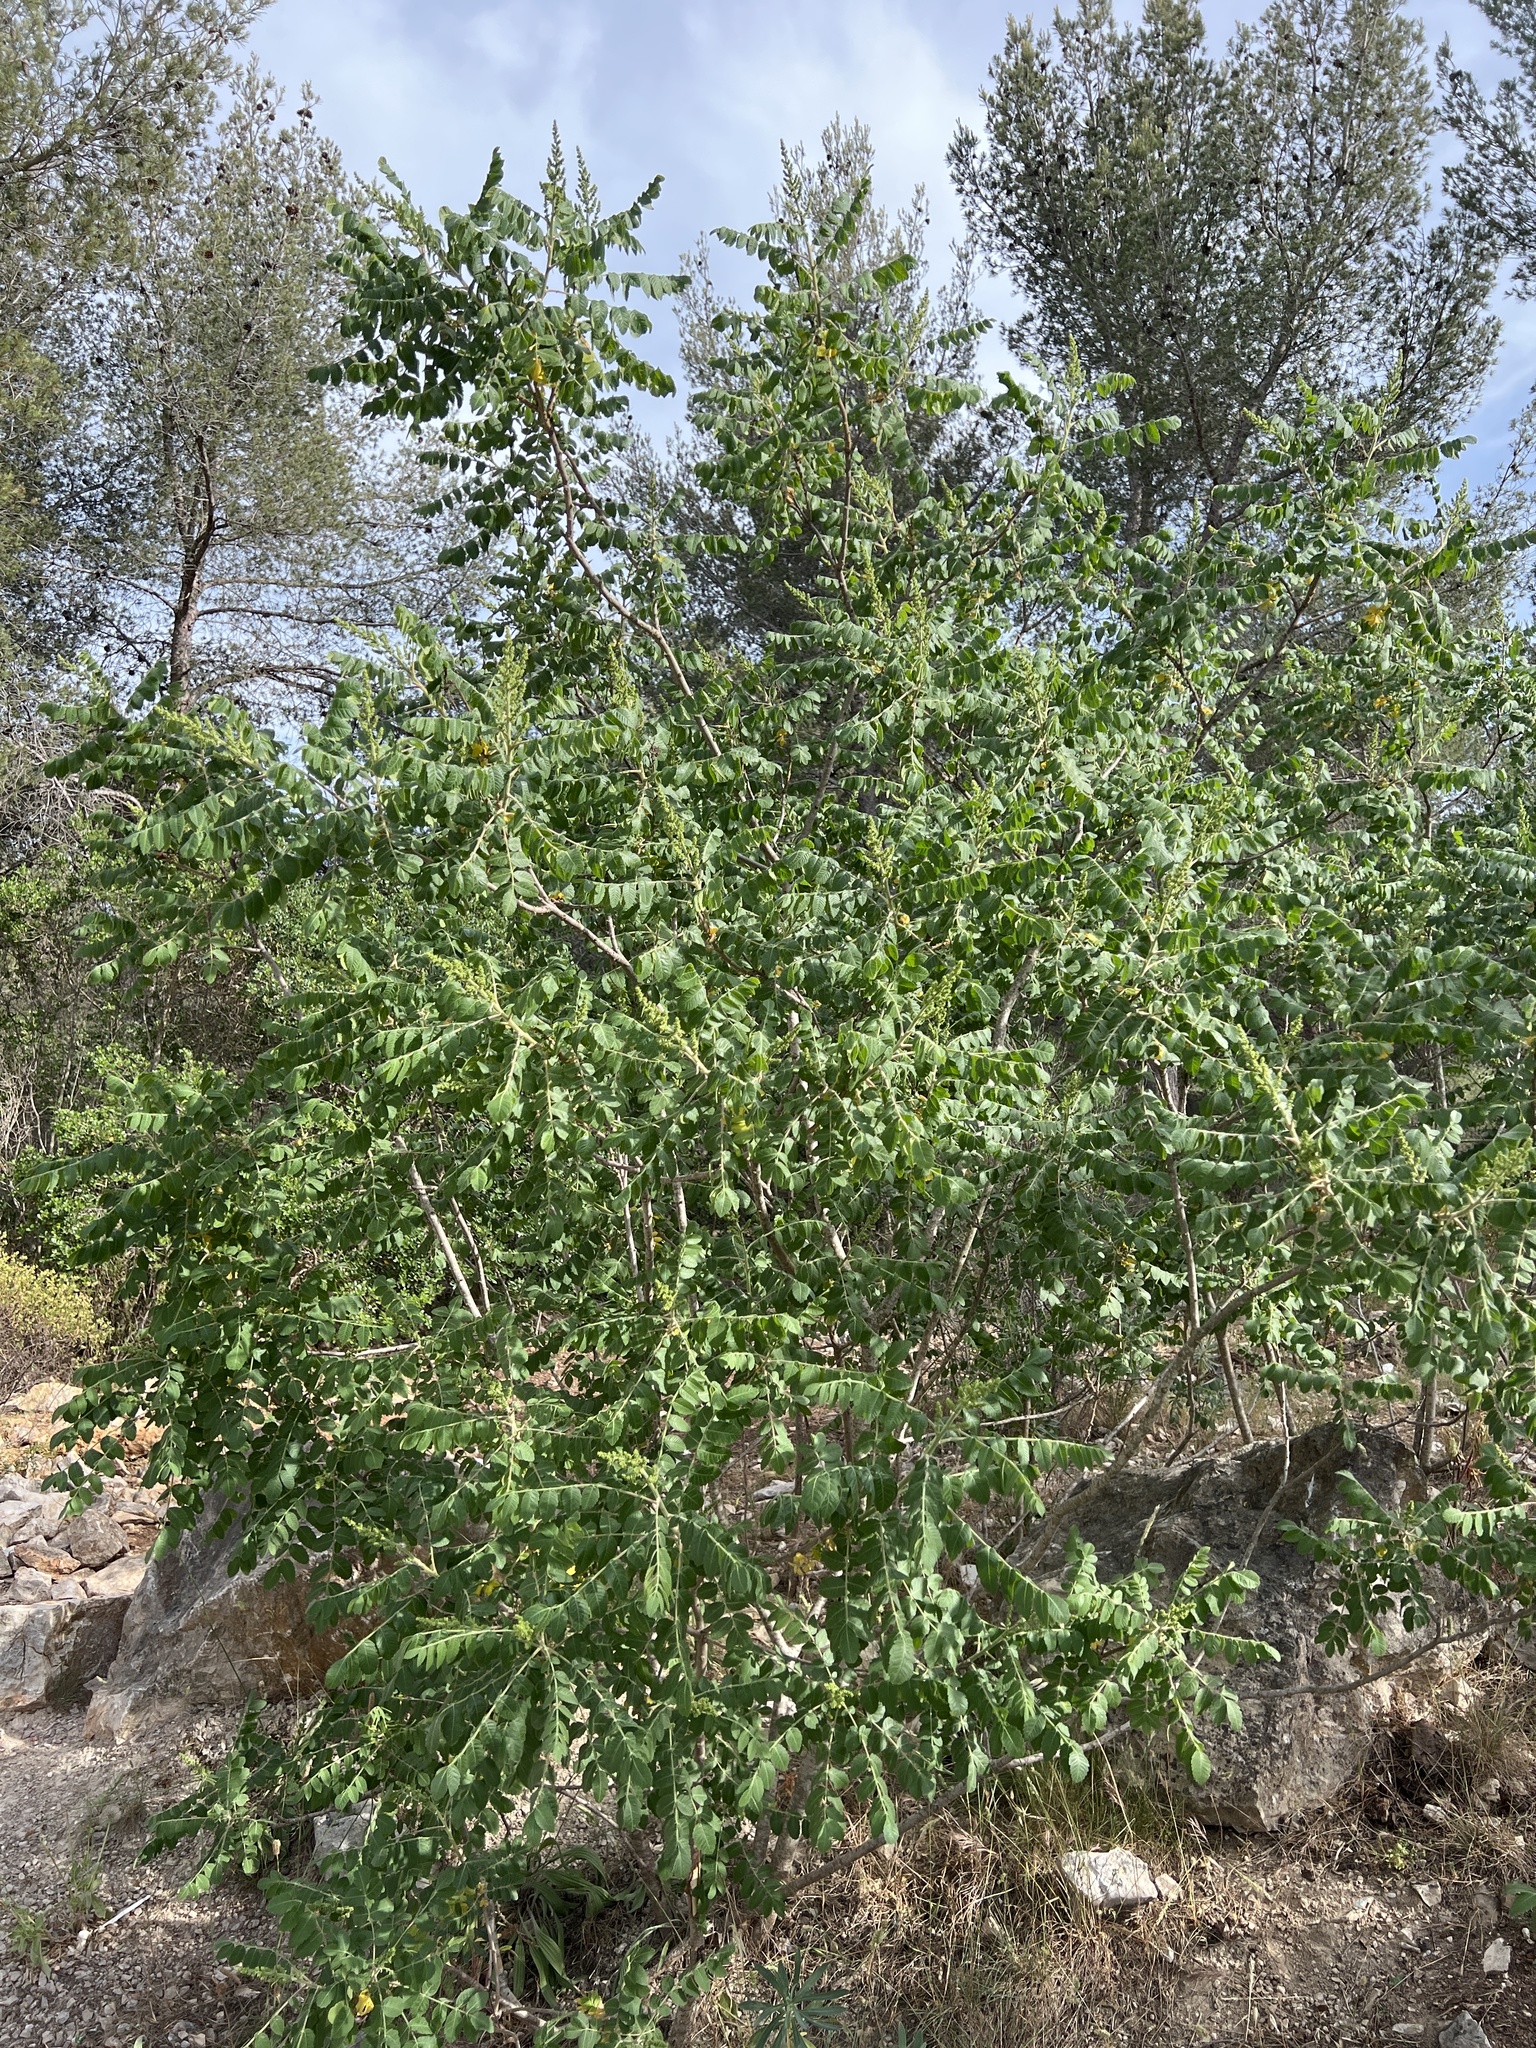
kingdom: Plantae
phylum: Tracheophyta
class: Magnoliopsida
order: Sapindales
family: Anacardiaceae
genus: Rhus
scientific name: Rhus coriaria
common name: Tanner's sumach
